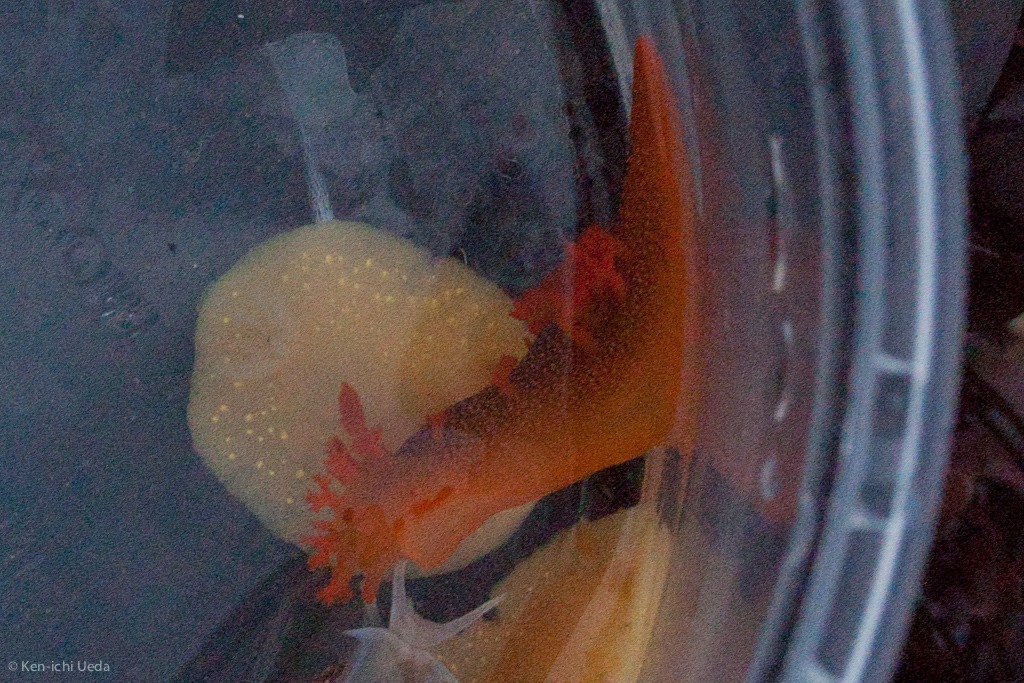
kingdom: Animalia
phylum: Mollusca
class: Gastropoda
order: Nudibranchia
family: Polyceridae
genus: Triopha
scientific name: Triopha maculata
